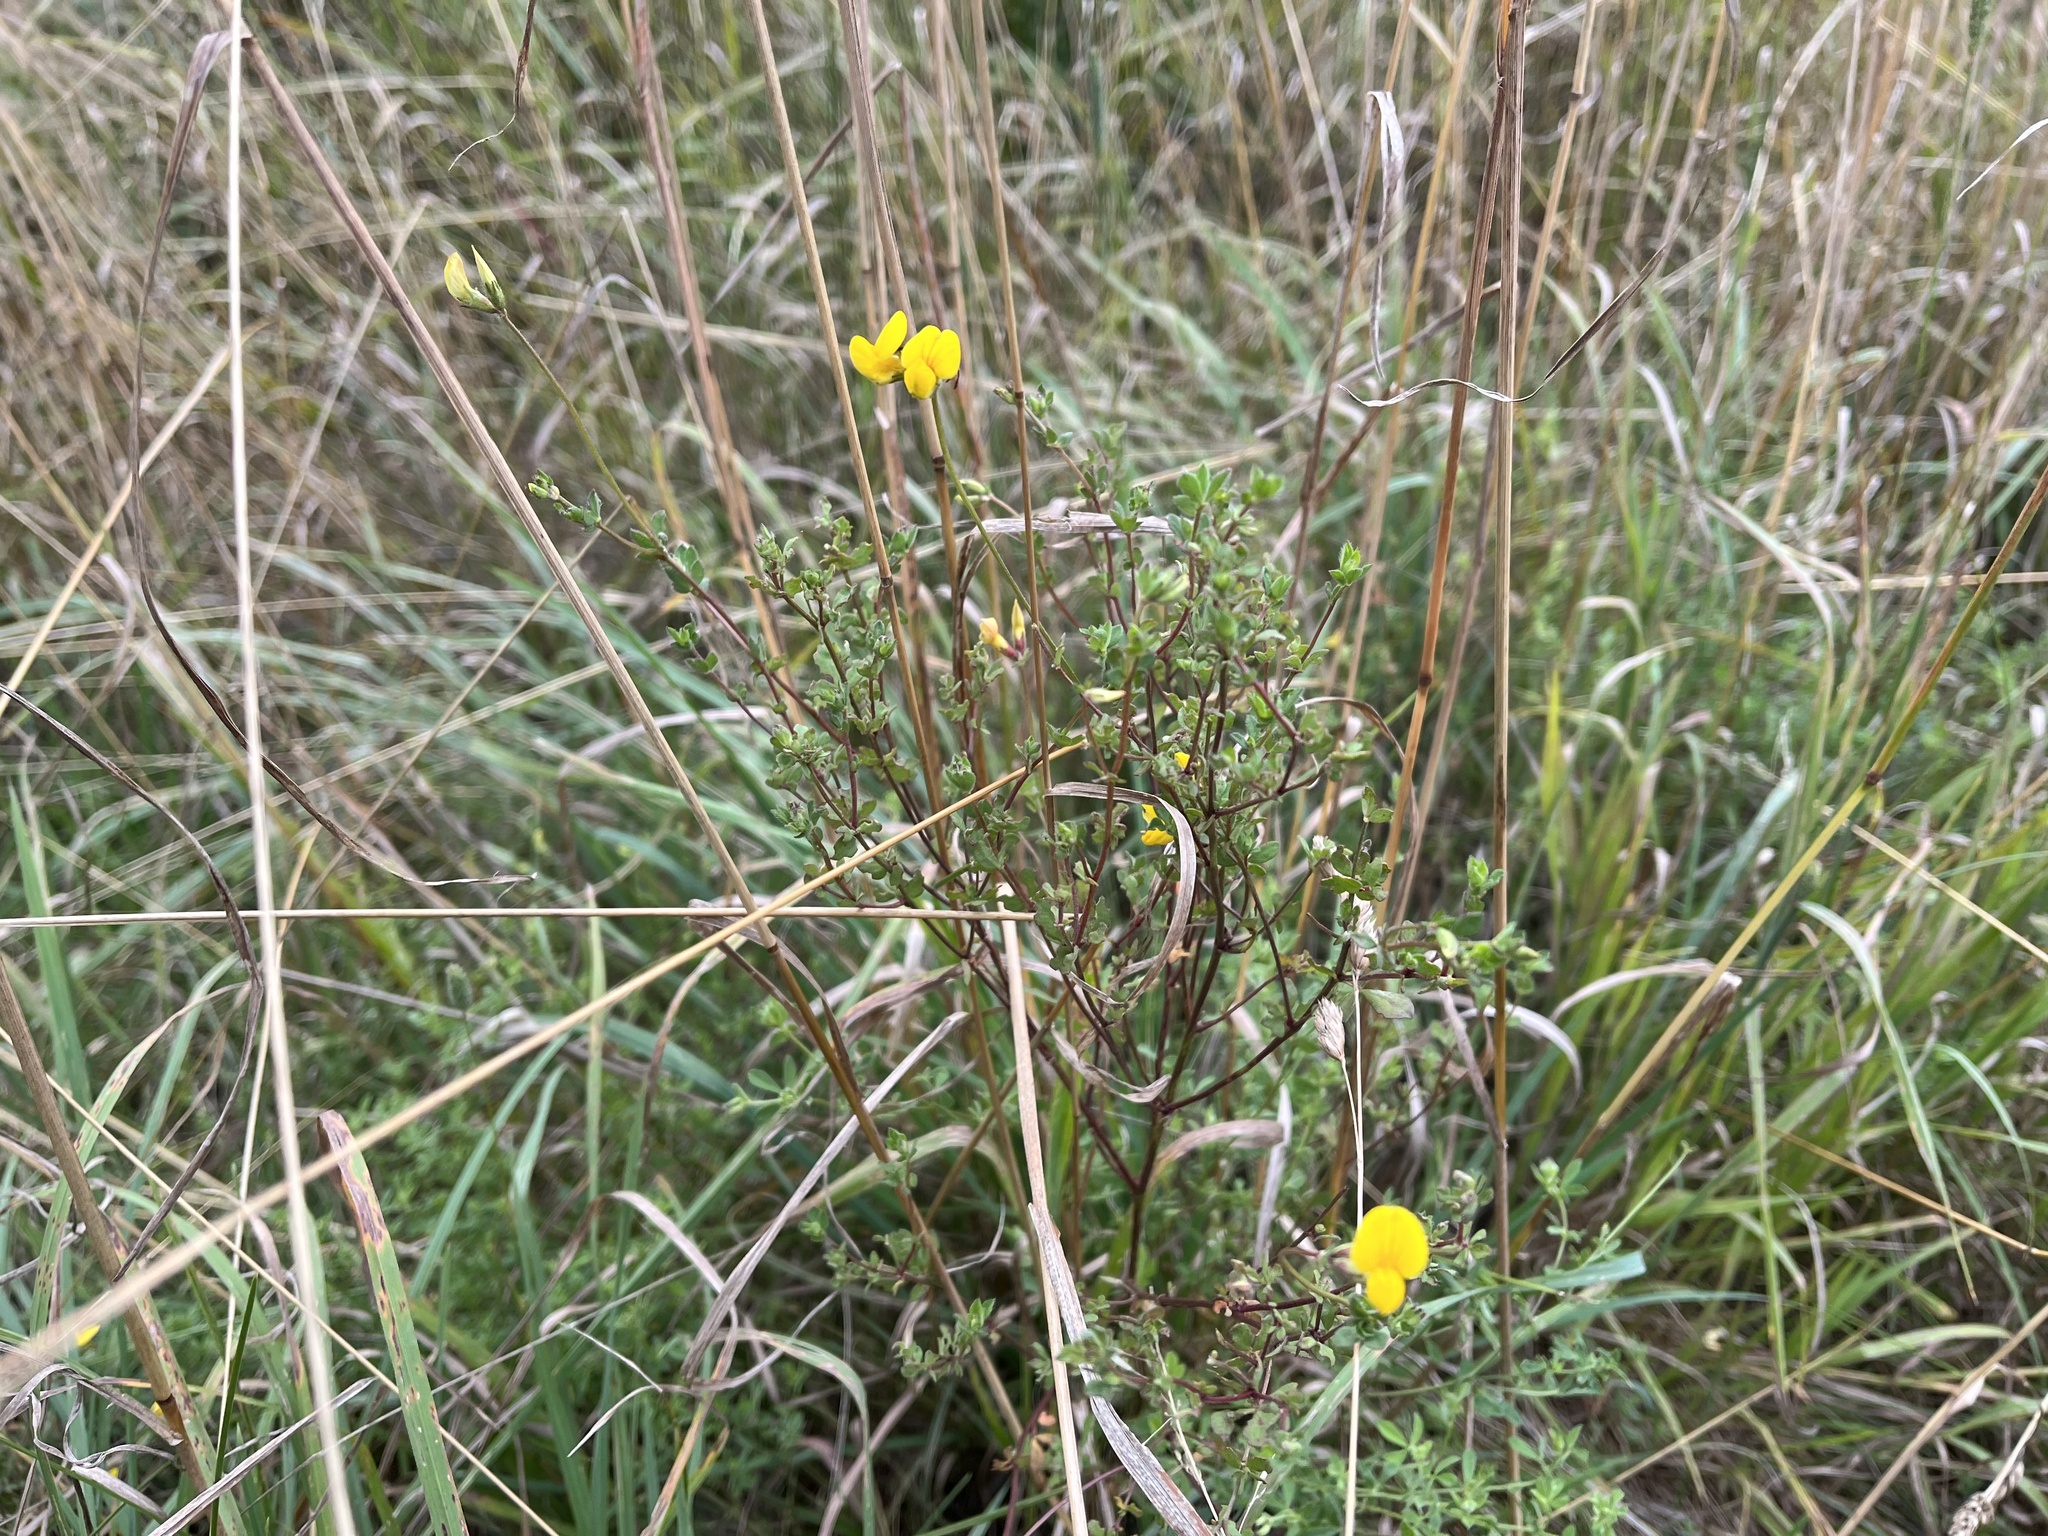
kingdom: Plantae
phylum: Tracheophyta
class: Magnoliopsida
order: Fabales
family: Fabaceae
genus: Lotus
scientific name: Lotus corniculatus
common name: Common bird's-foot-trefoil
